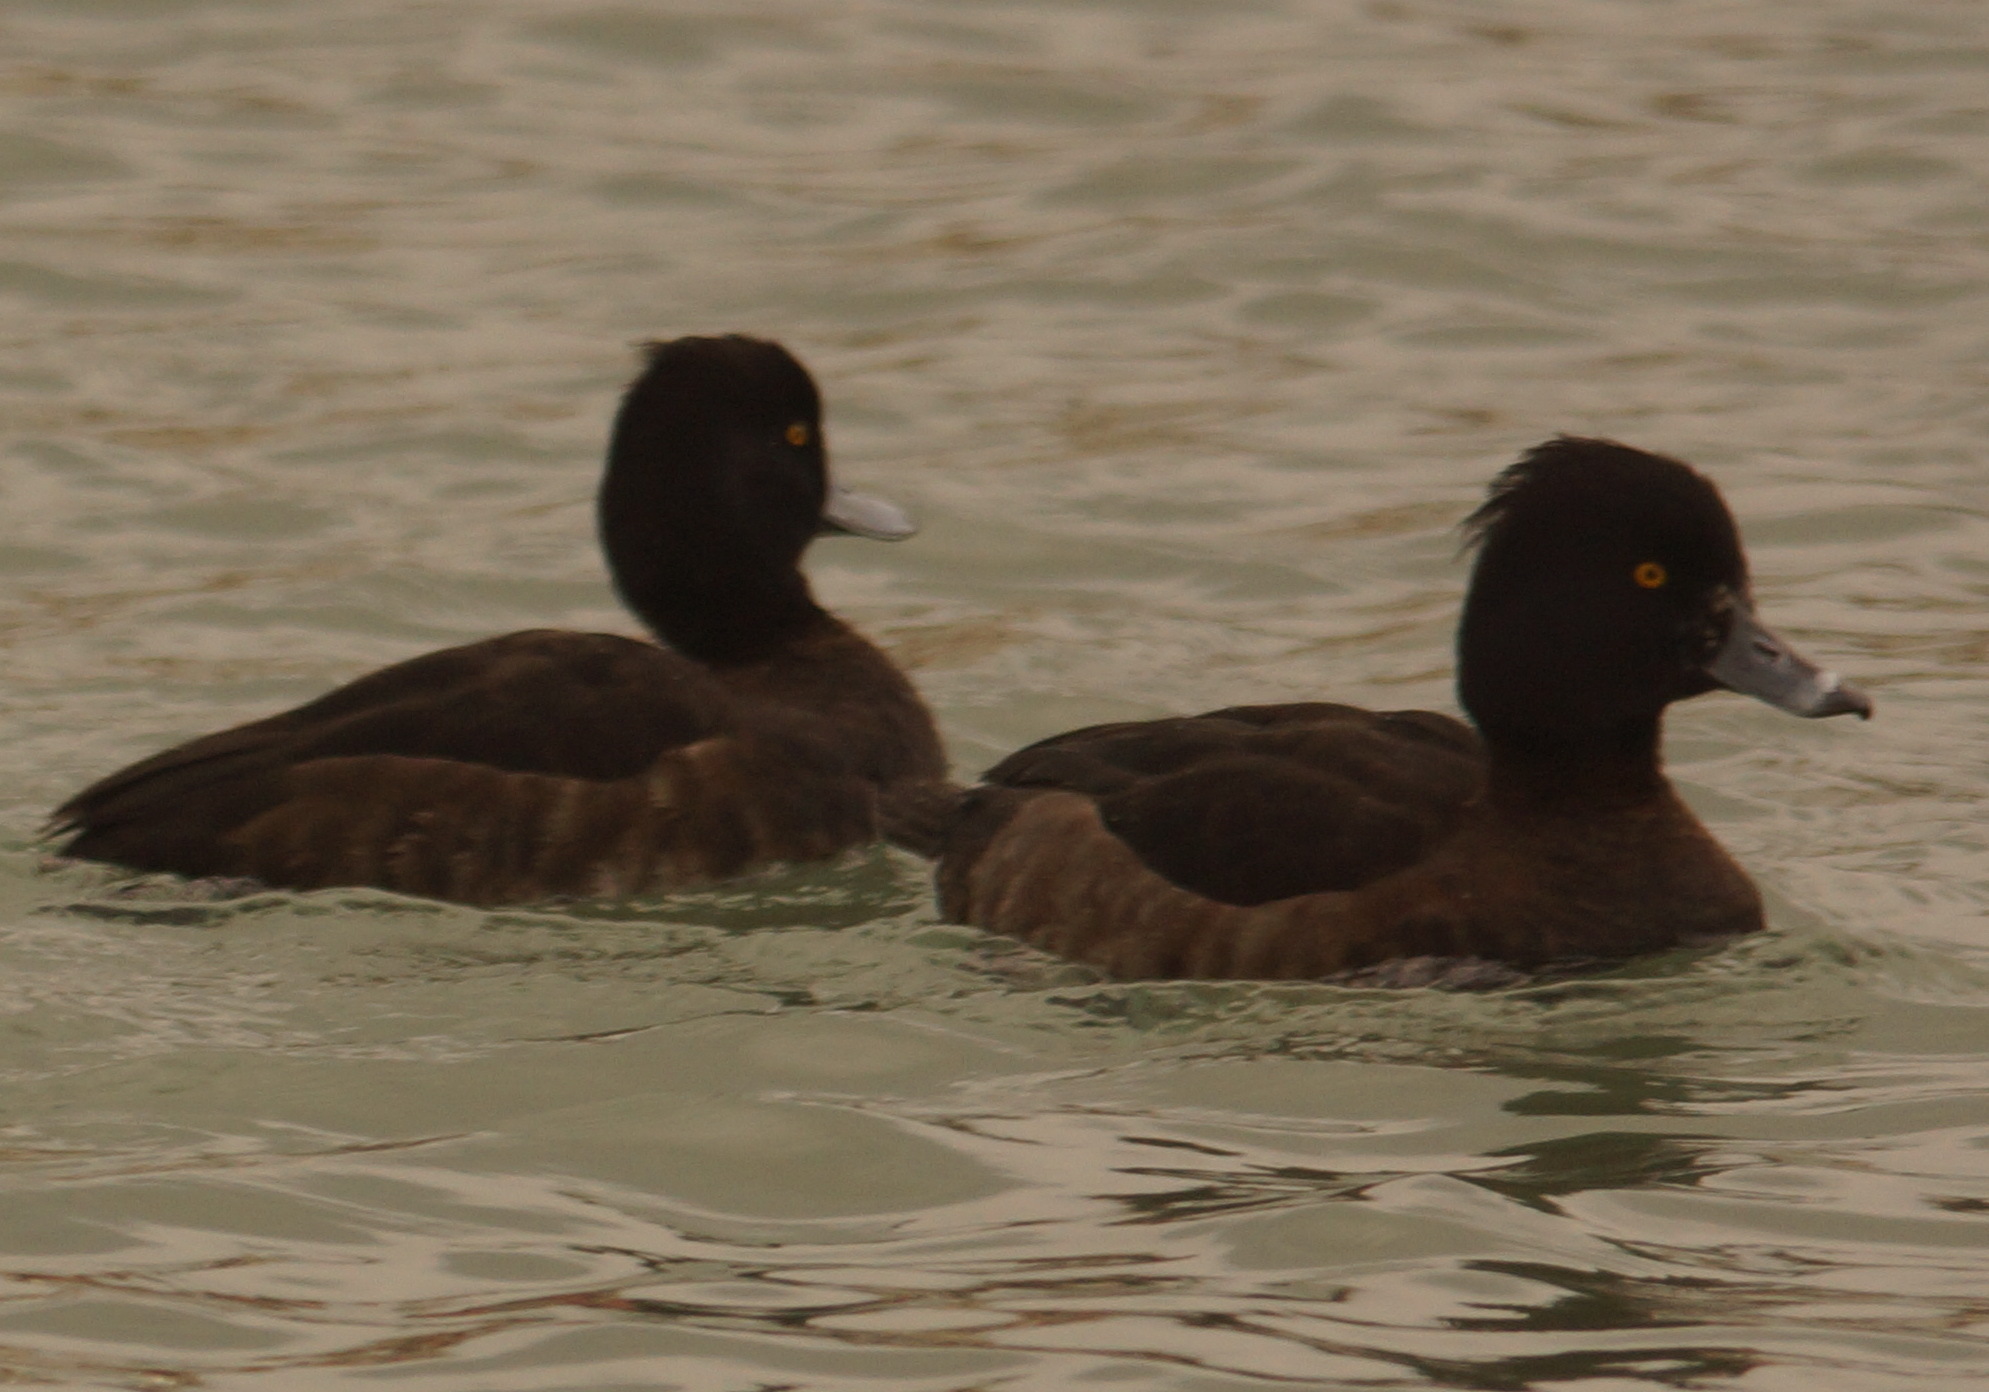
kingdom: Animalia
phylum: Chordata
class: Aves
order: Anseriformes
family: Anatidae
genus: Aythya
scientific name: Aythya fuligula
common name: Tufted duck
